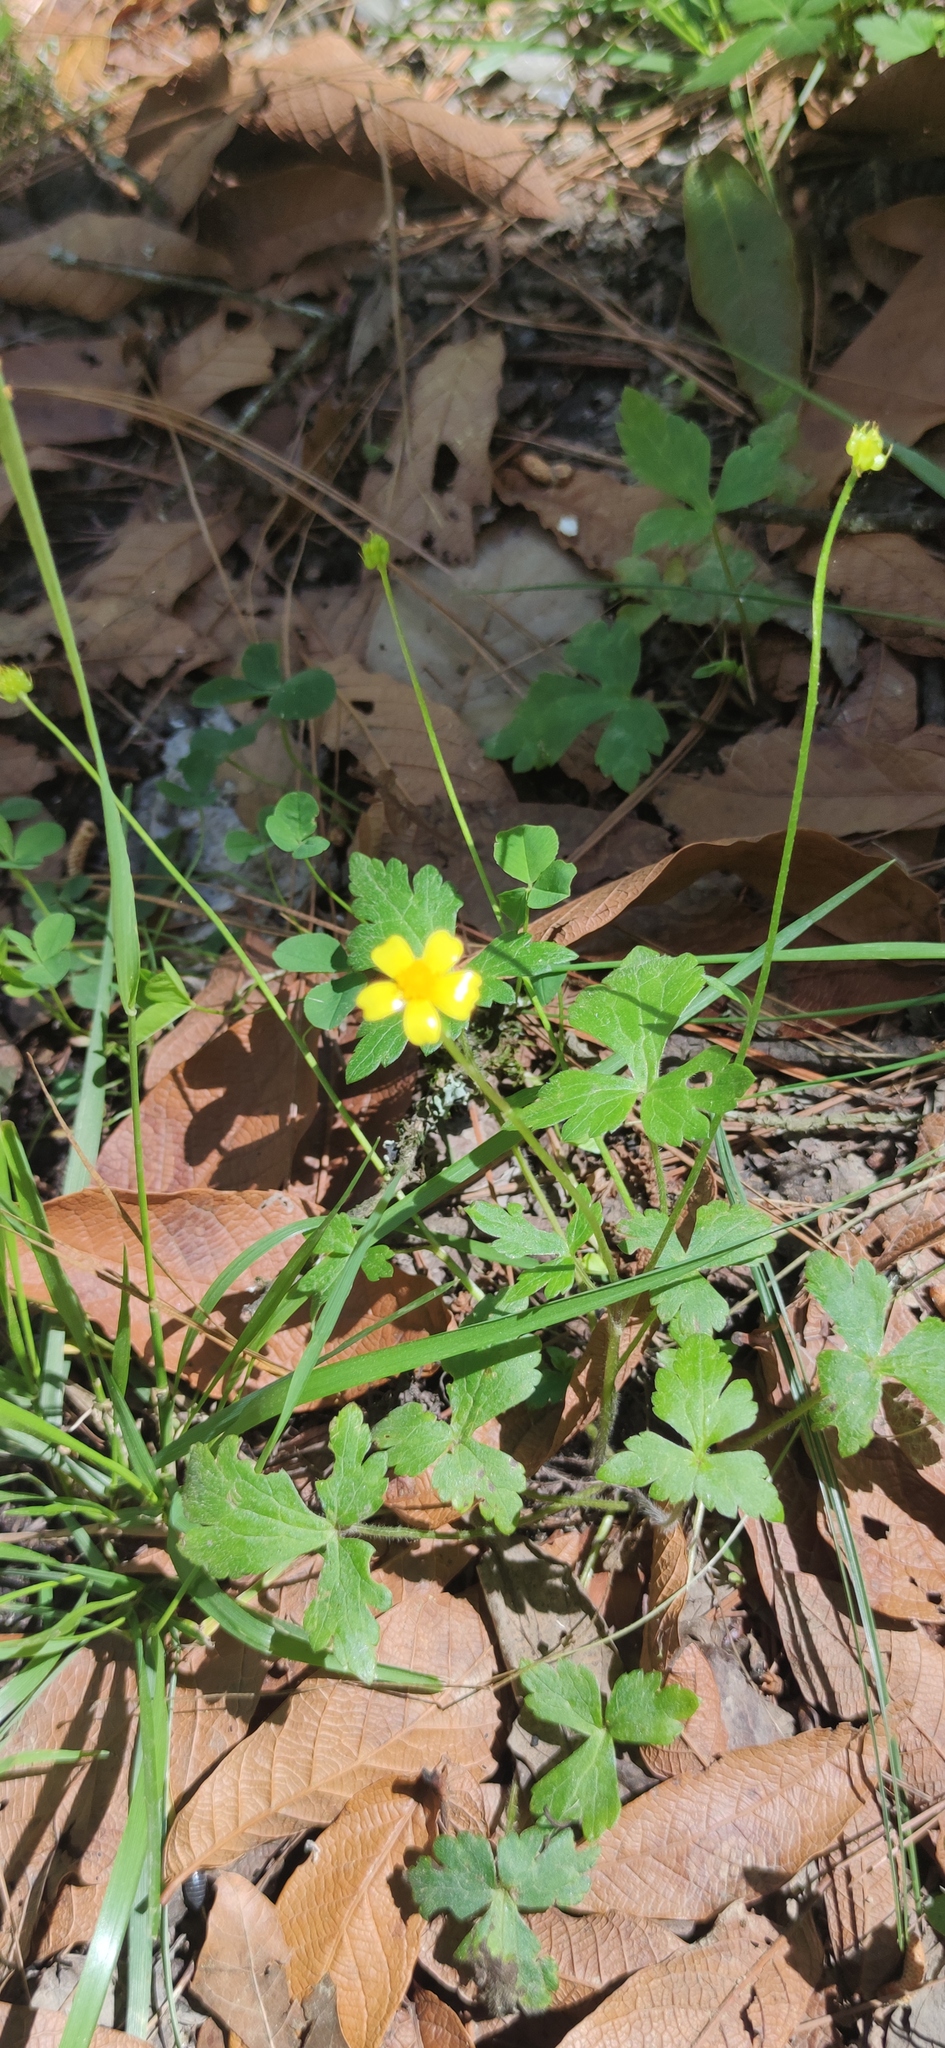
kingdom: Plantae
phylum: Tracheophyta
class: Magnoliopsida
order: Ranunculales
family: Ranunculaceae
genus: Ranunculus
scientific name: Ranunculus sierrae-orientalis
